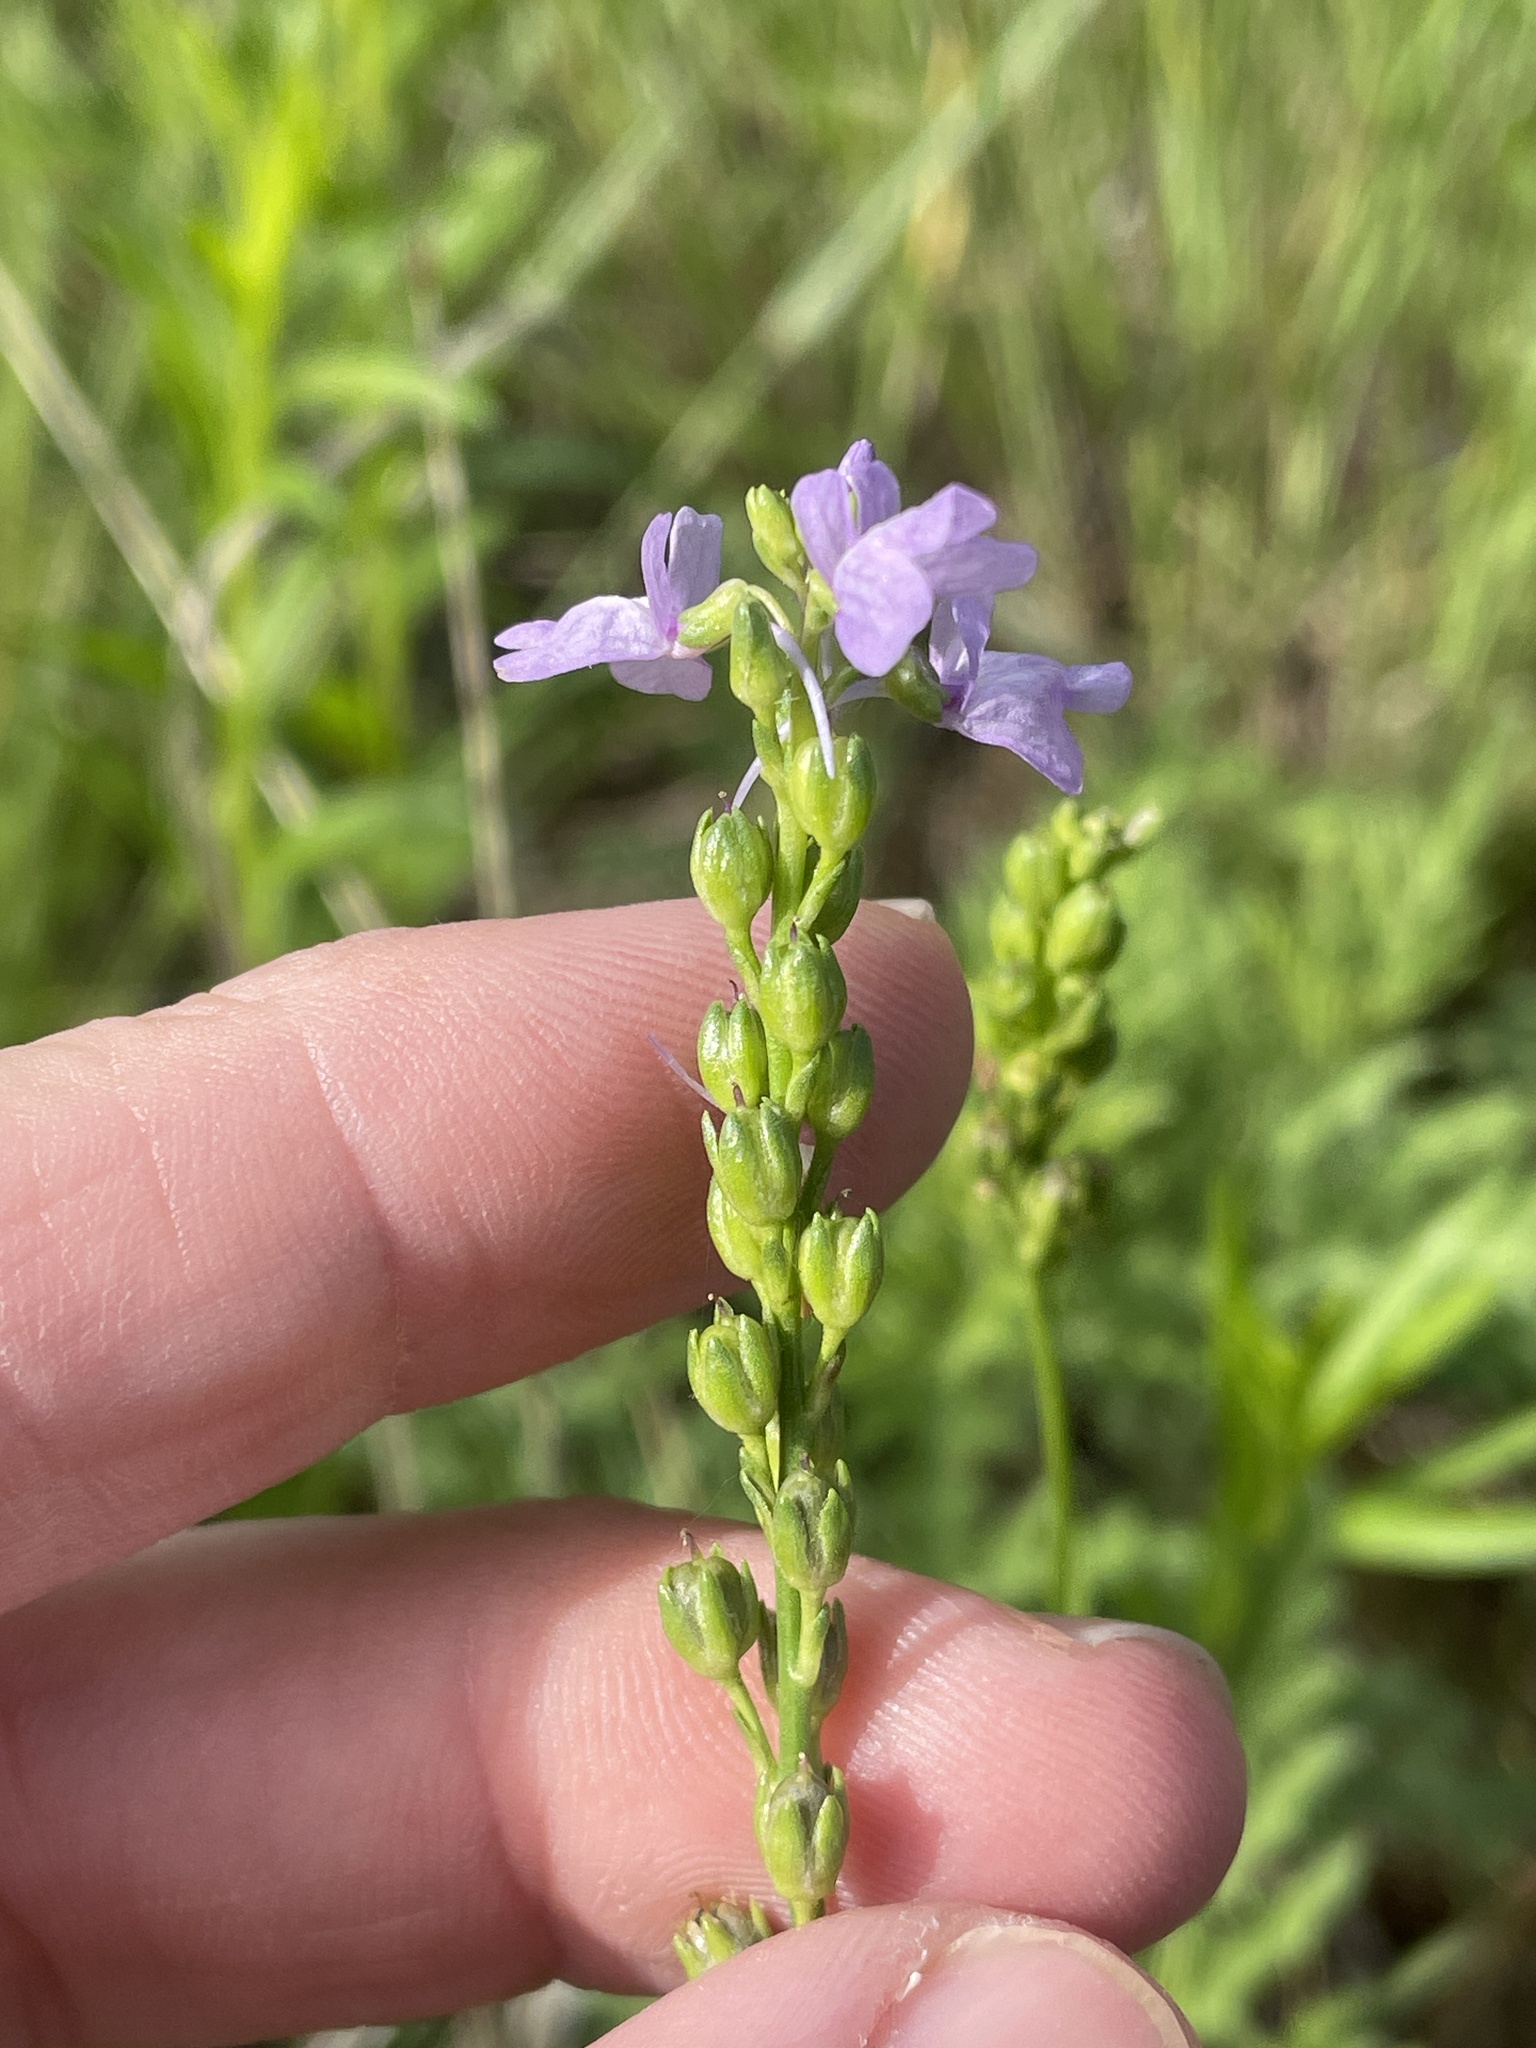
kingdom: Plantae
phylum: Tracheophyta
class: Magnoliopsida
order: Lamiales
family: Plantaginaceae
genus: Nuttallanthus
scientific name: Nuttallanthus texanus
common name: Texas toadflax
